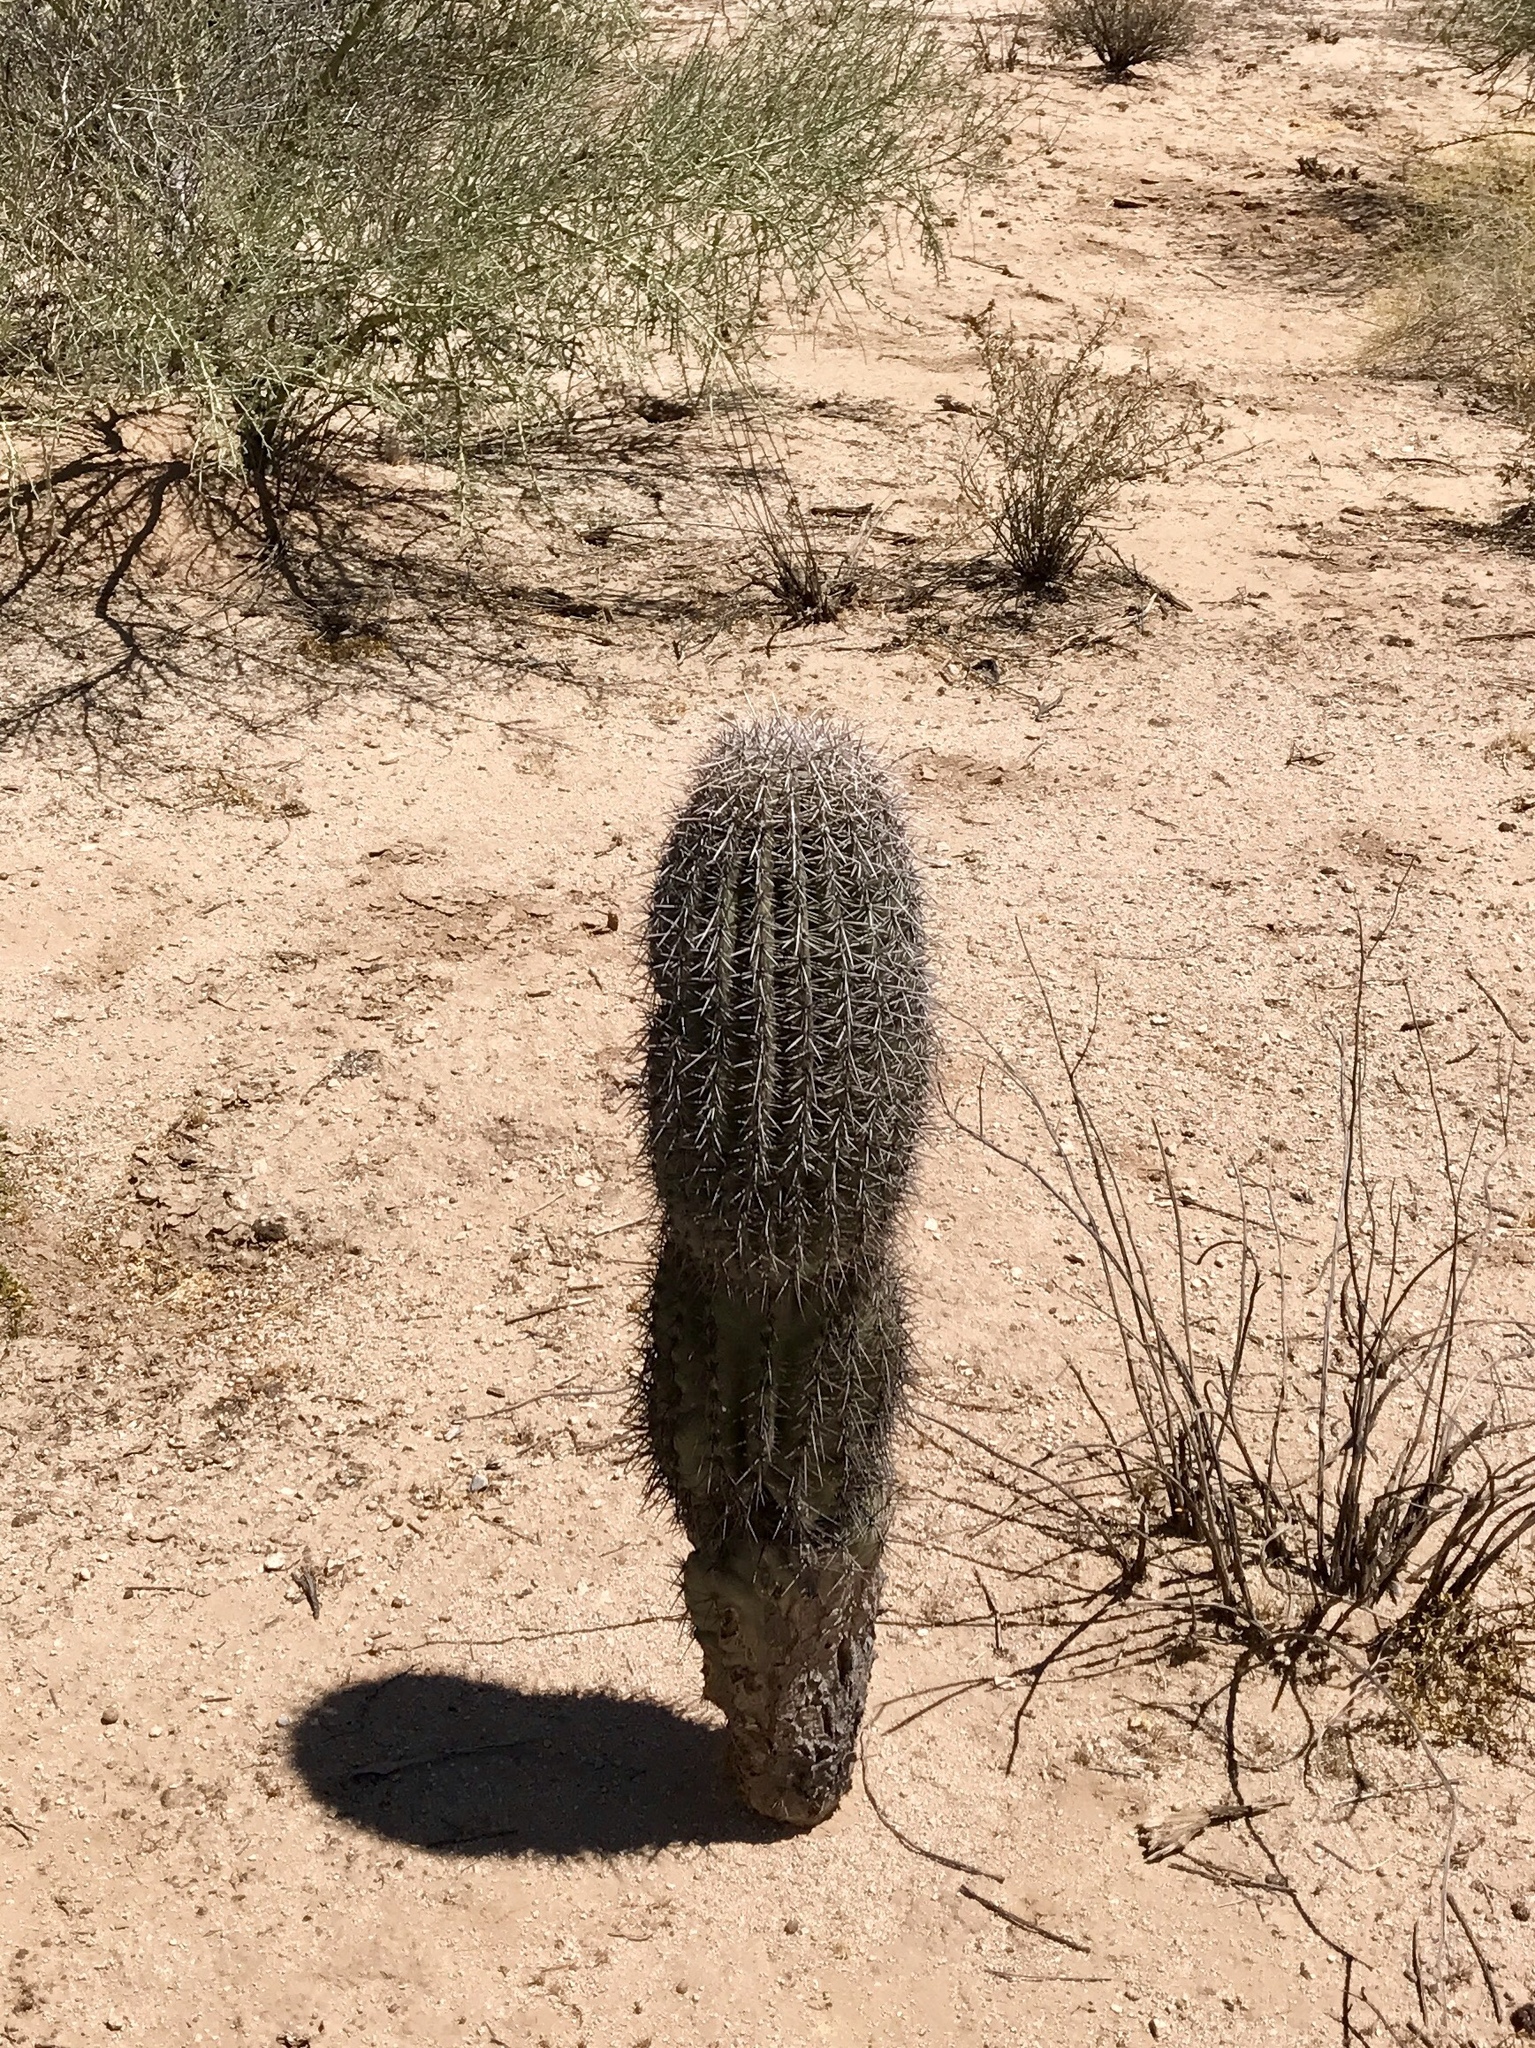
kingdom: Plantae
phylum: Tracheophyta
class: Magnoliopsida
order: Caryophyllales
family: Cactaceae
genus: Carnegiea
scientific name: Carnegiea gigantea
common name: Saguaro
